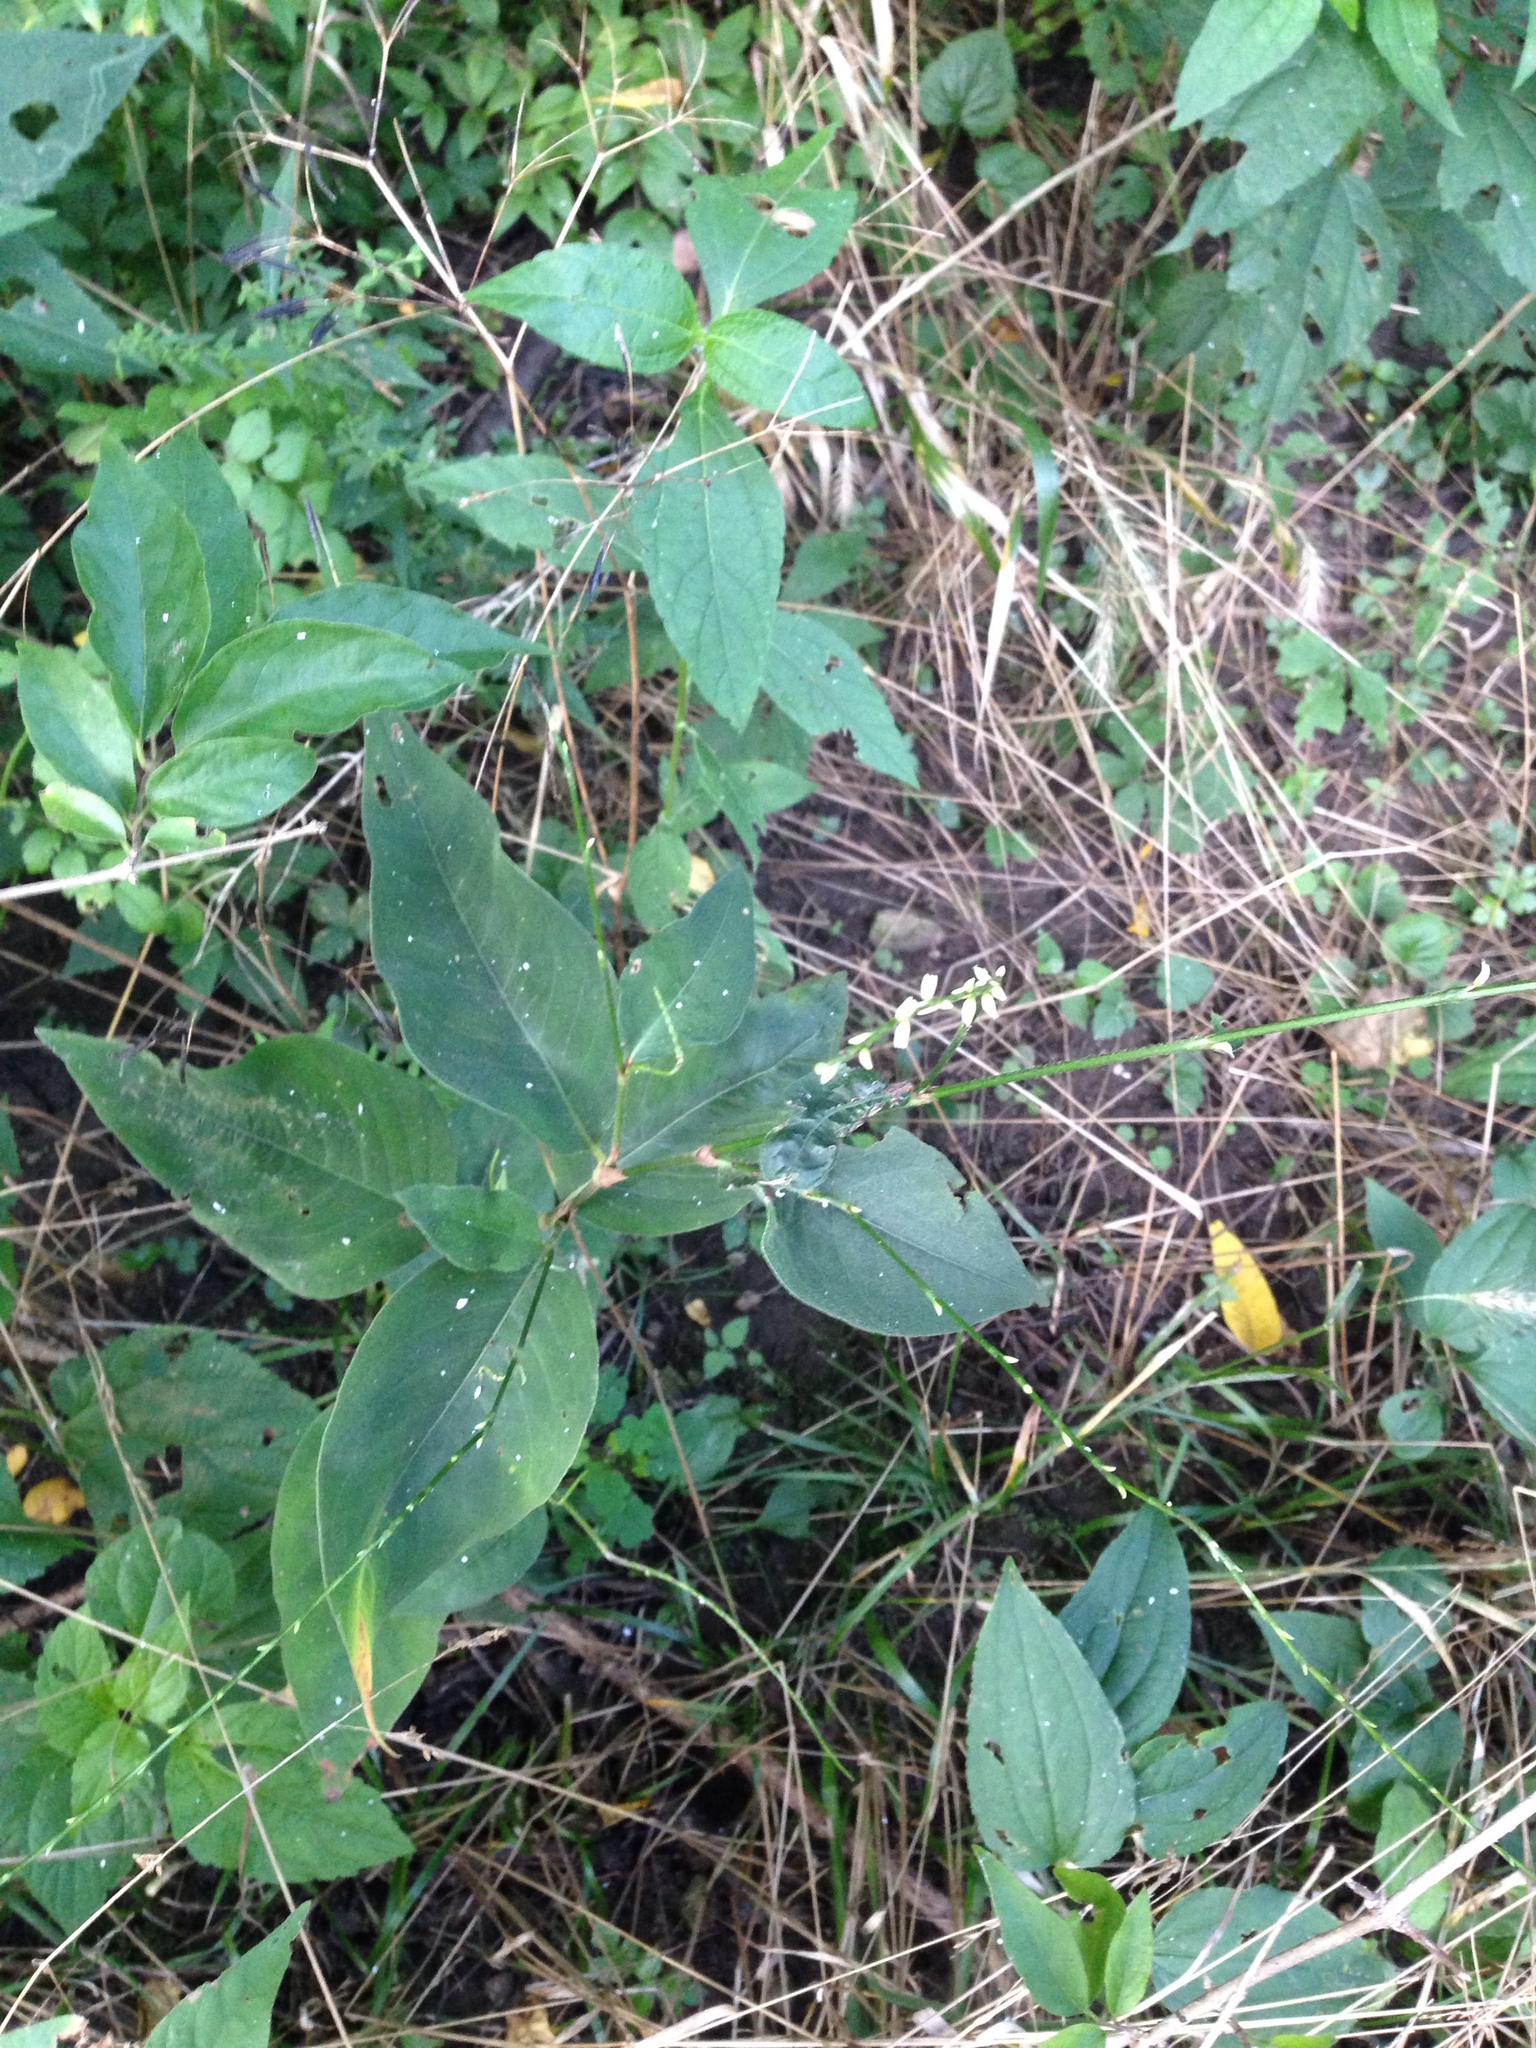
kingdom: Plantae
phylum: Tracheophyta
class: Magnoliopsida
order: Caryophyllales
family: Polygonaceae
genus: Persicaria
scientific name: Persicaria virginiana
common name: Jumpseed
